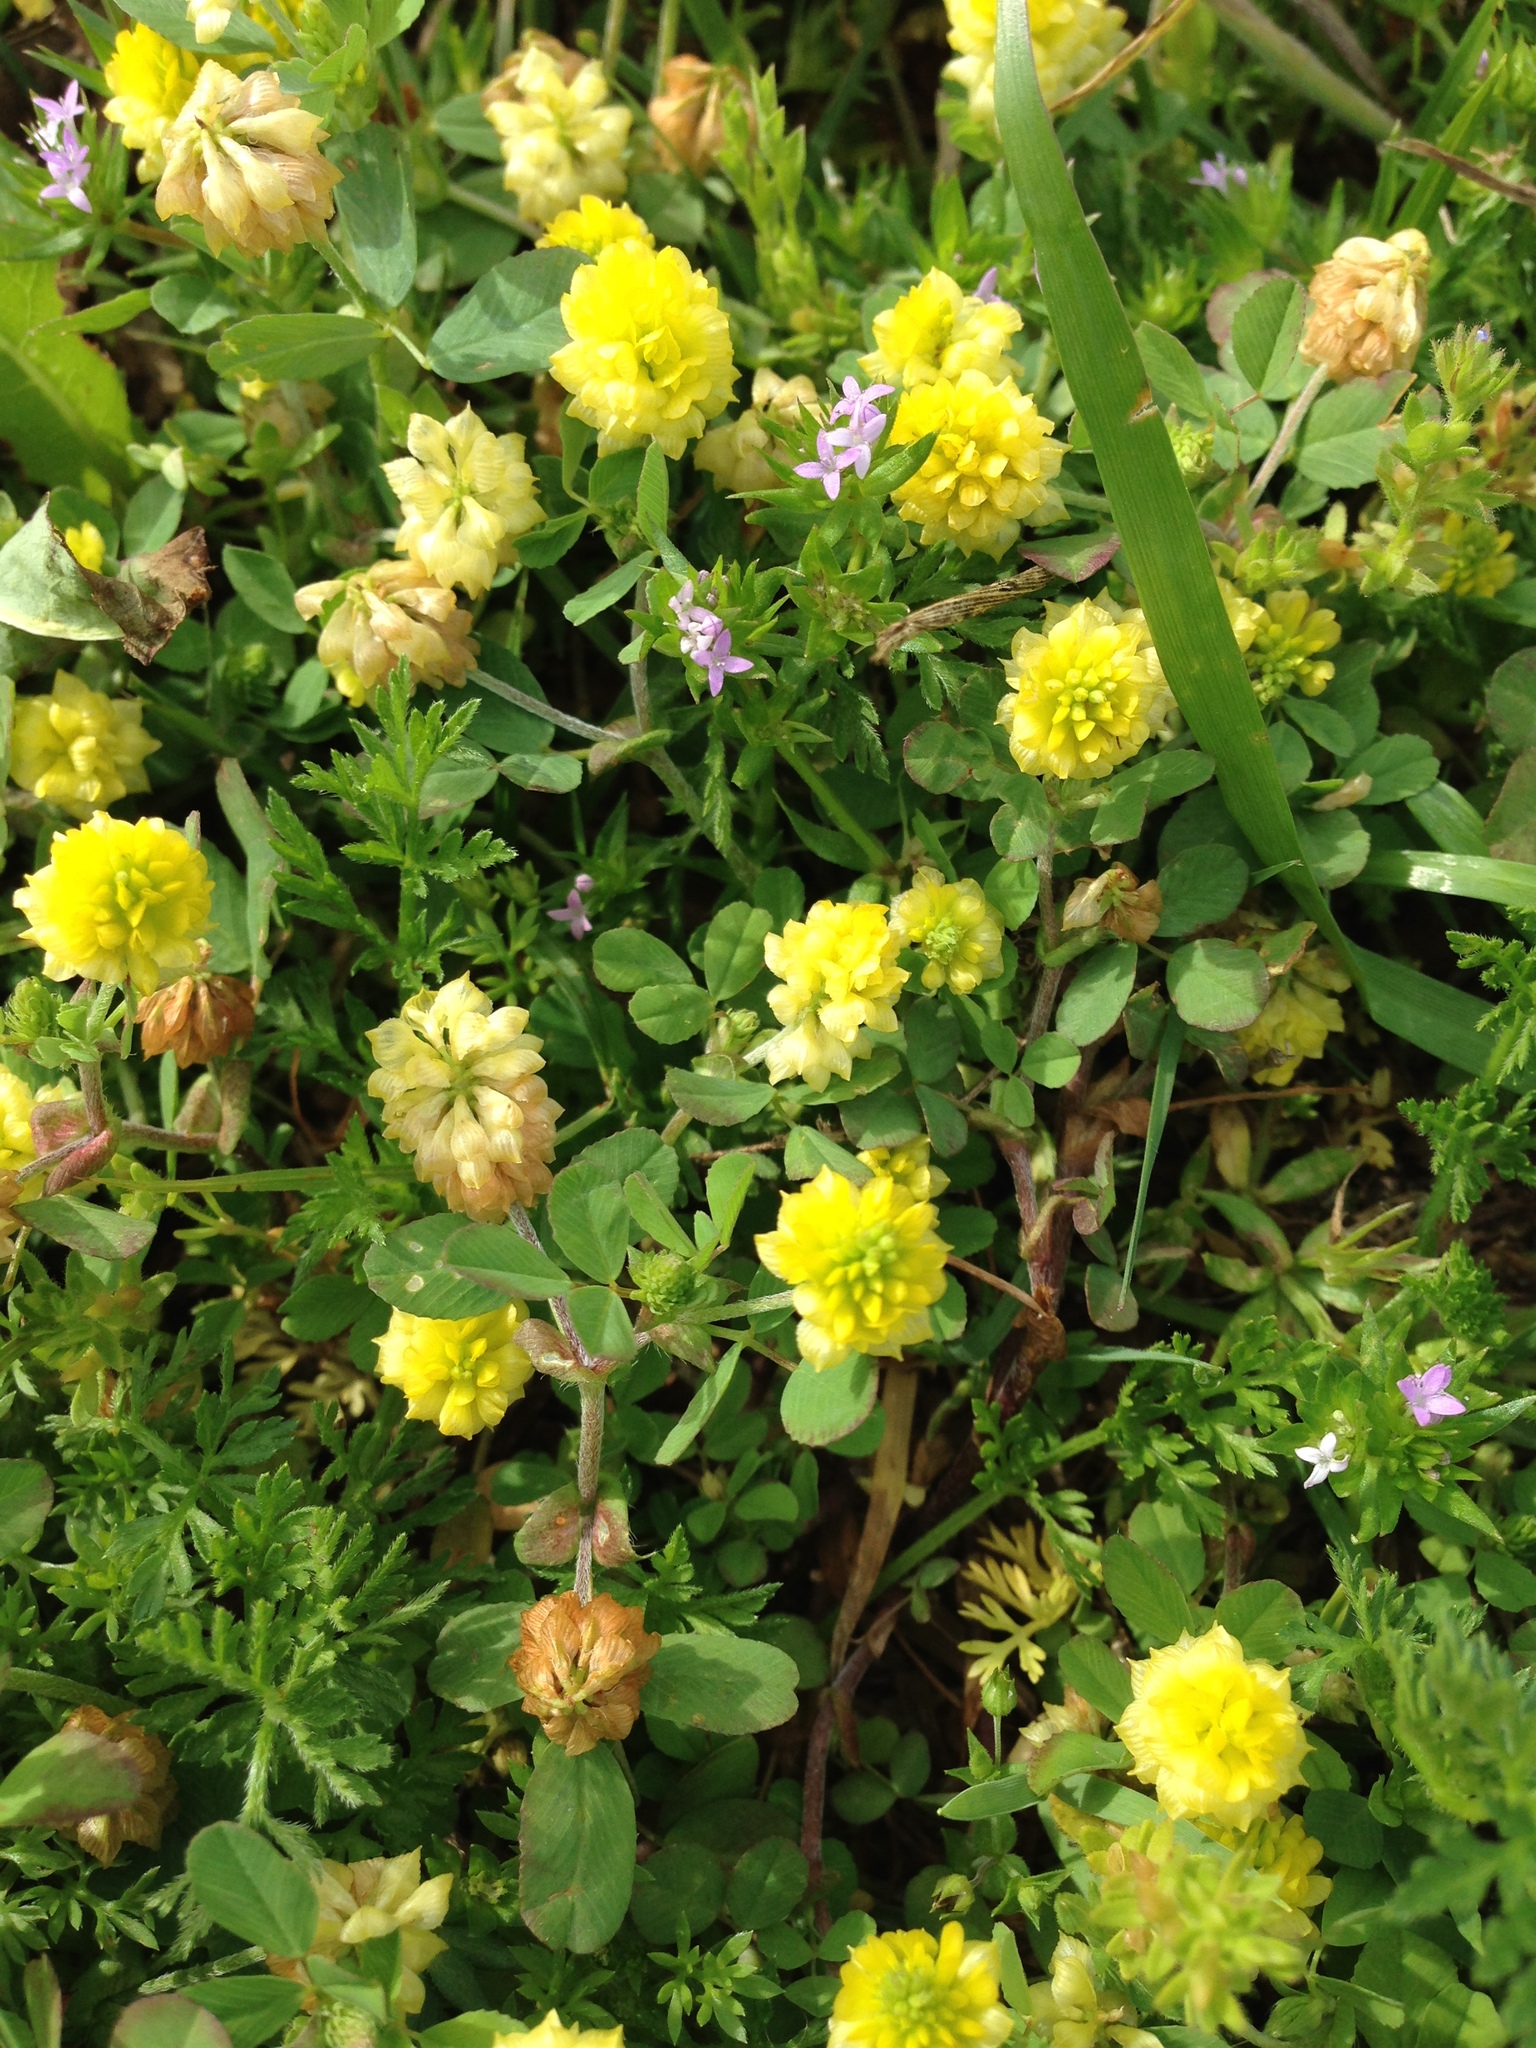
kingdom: Plantae
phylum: Tracheophyta
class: Magnoliopsida
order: Fabales
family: Fabaceae
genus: Trifolium
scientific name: Trifolium campestre
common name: Field clover
